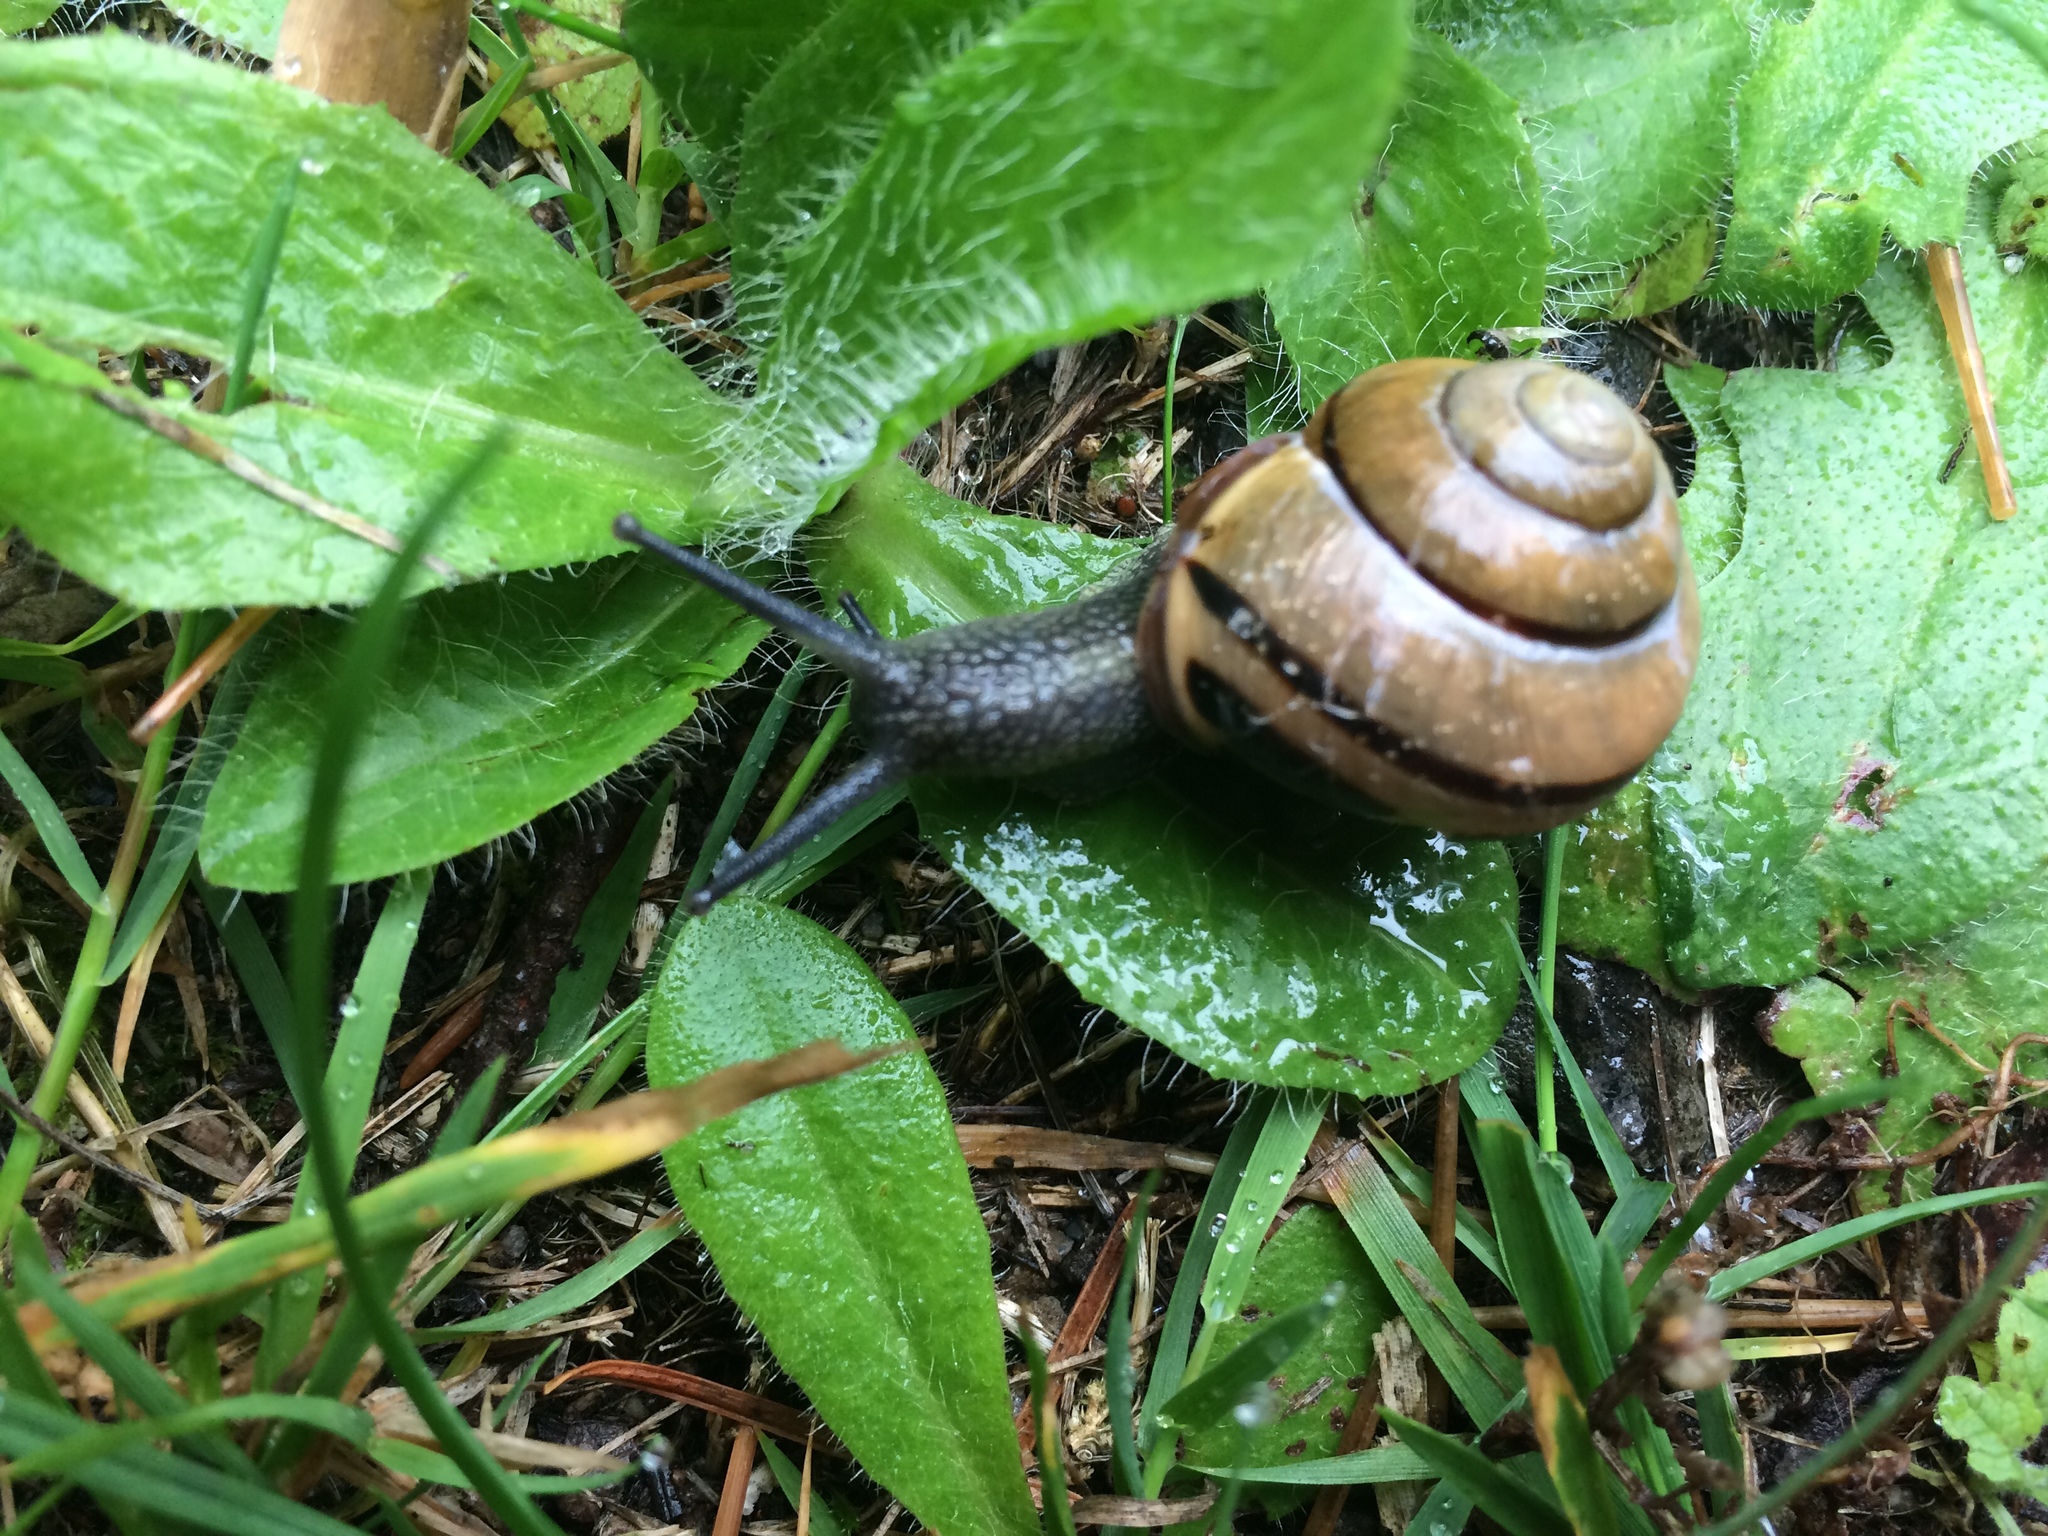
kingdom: Animalia
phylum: Mollusca
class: Gastropoda
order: Stylommatophora
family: Helicidae
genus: Cepaea
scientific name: Cepaea nemoralis
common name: Grovesnail
